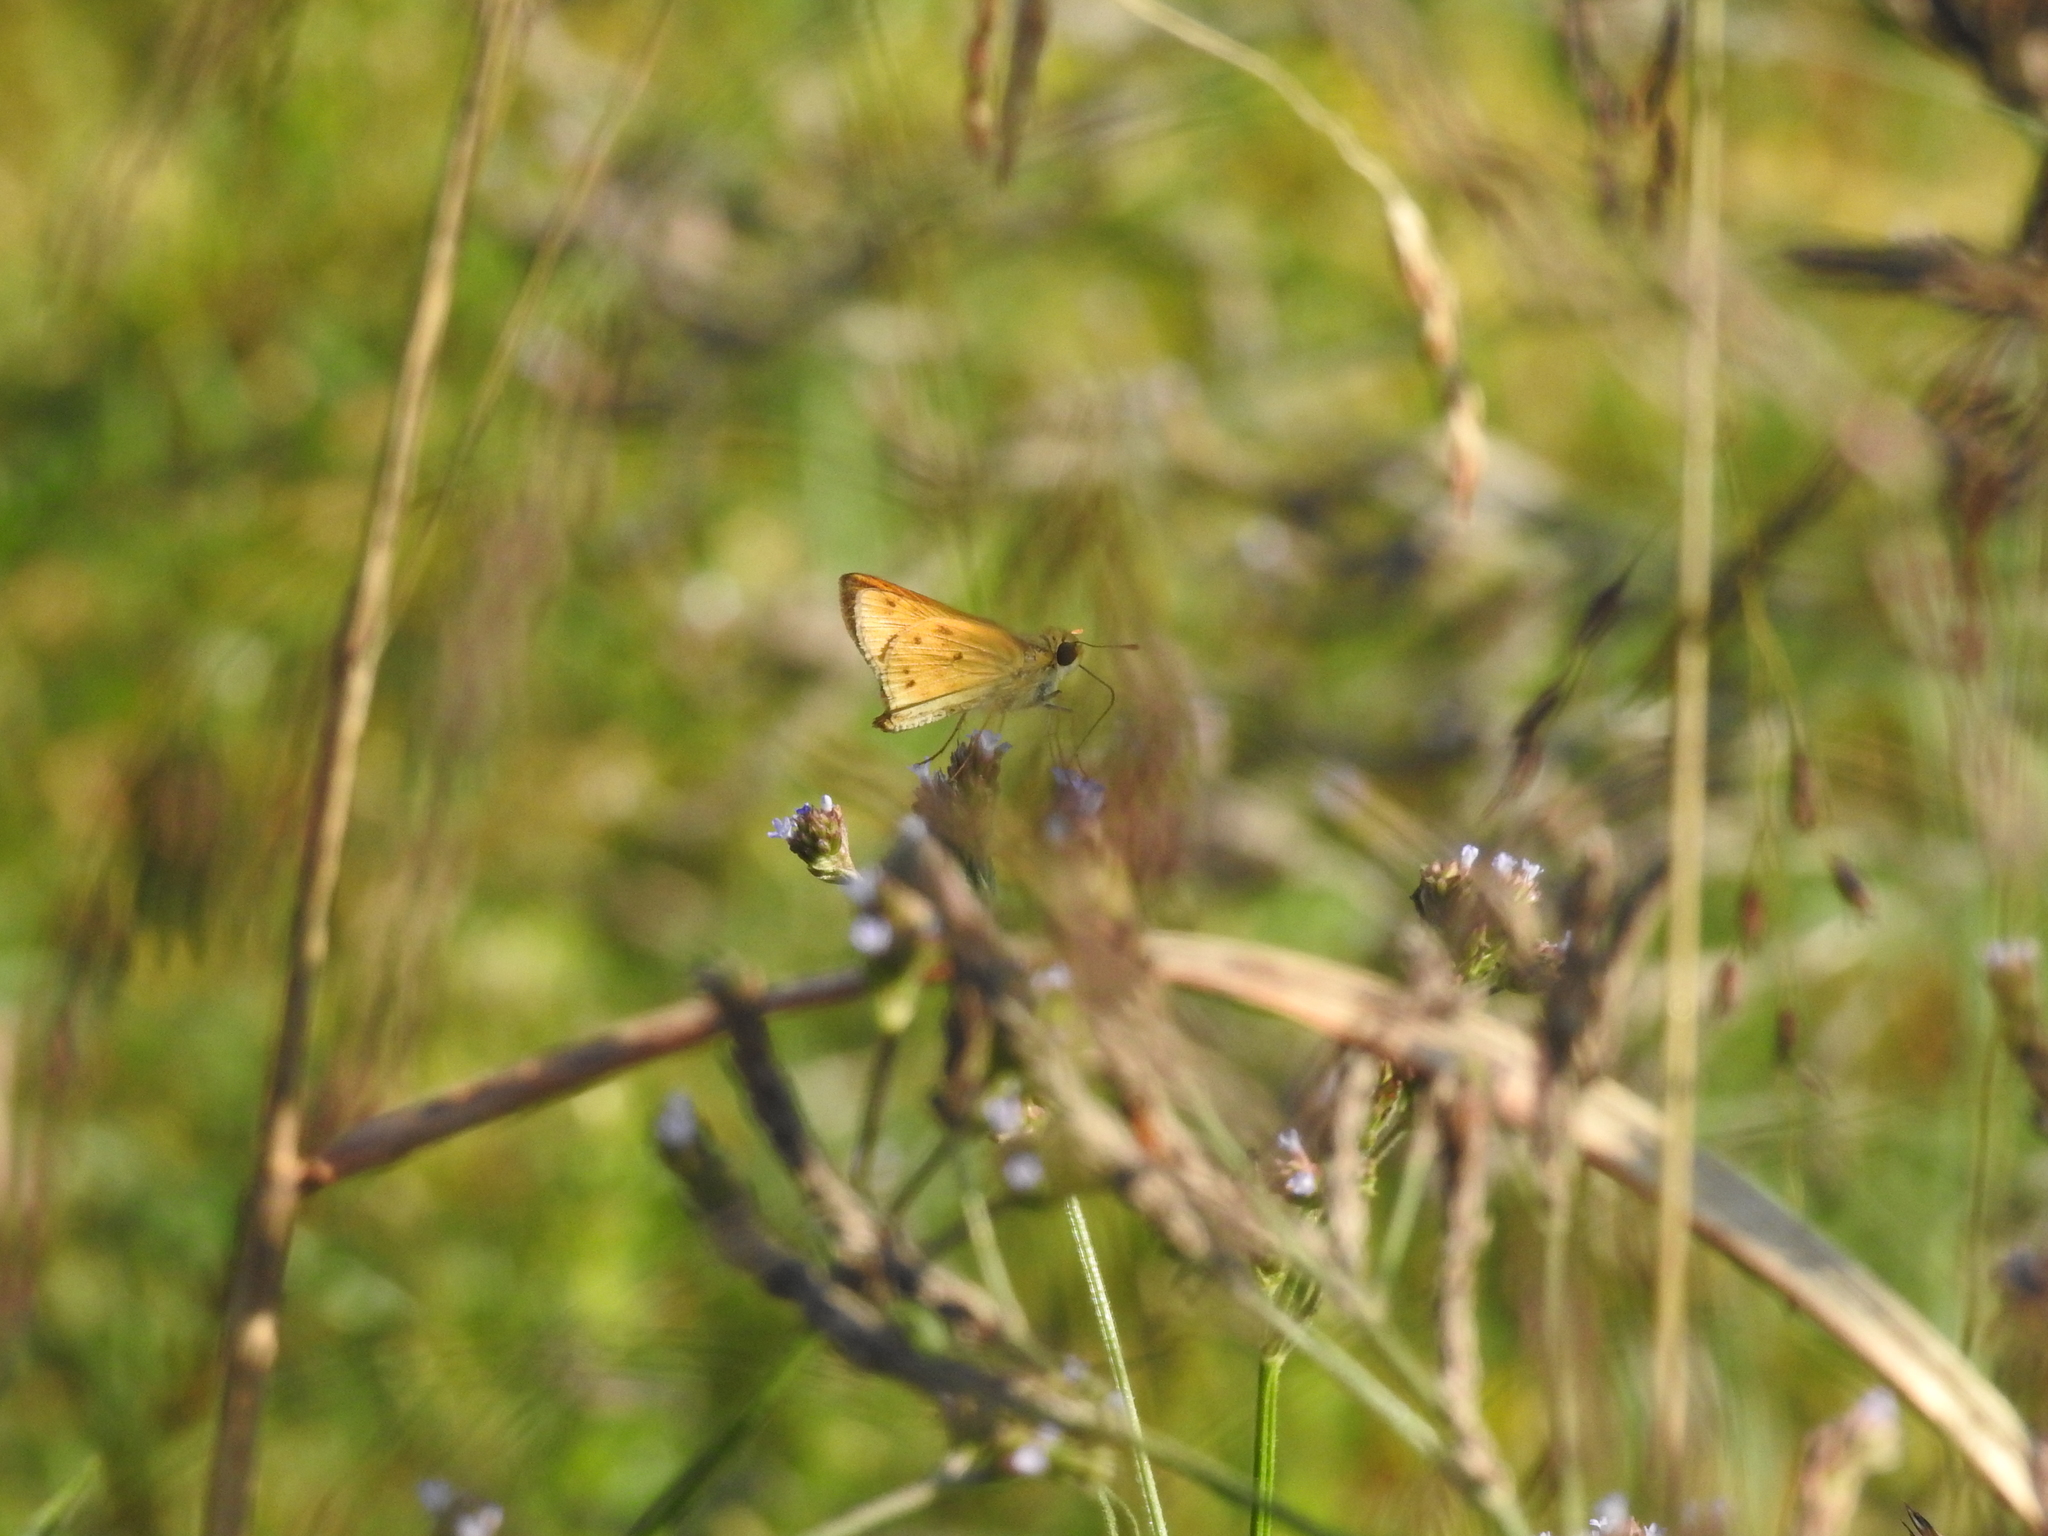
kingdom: Animalia
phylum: Arthropoda
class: Insecta
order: Lepidoptera
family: Hesperiidae
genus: Hylephila
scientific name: Hylephila phyleus
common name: Fiery skipper
